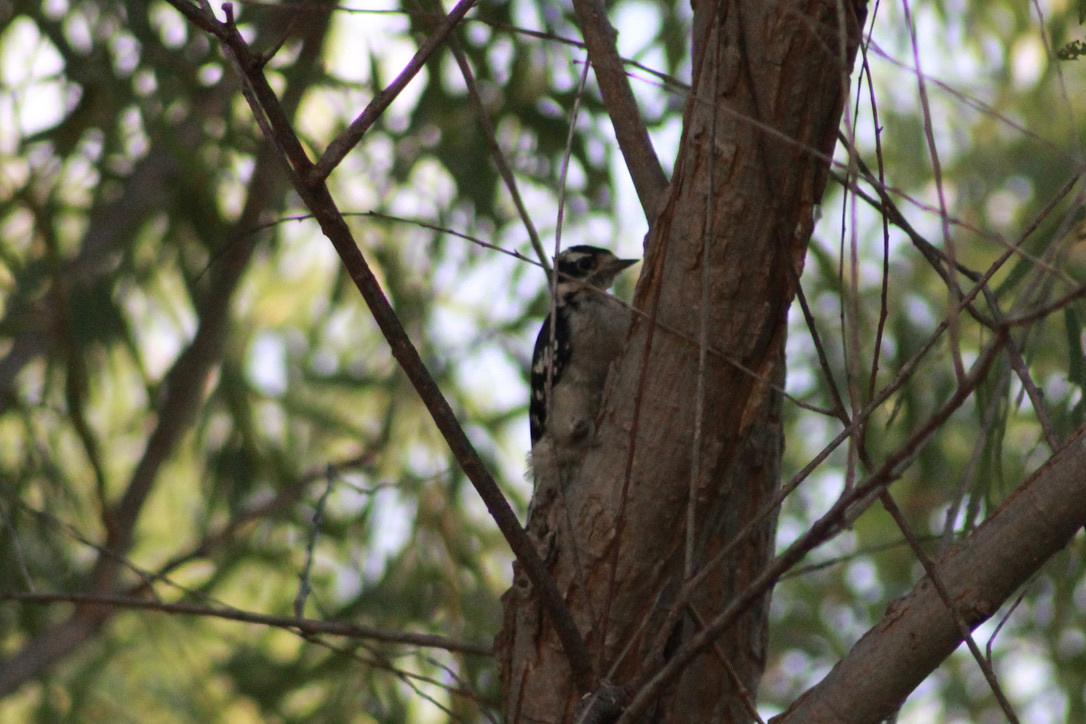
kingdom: Animalia
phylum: Chordata
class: Aves
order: Piciformes
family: Picidae
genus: Dryobates
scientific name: Dryobates pubescens
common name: Downy woodpecker
